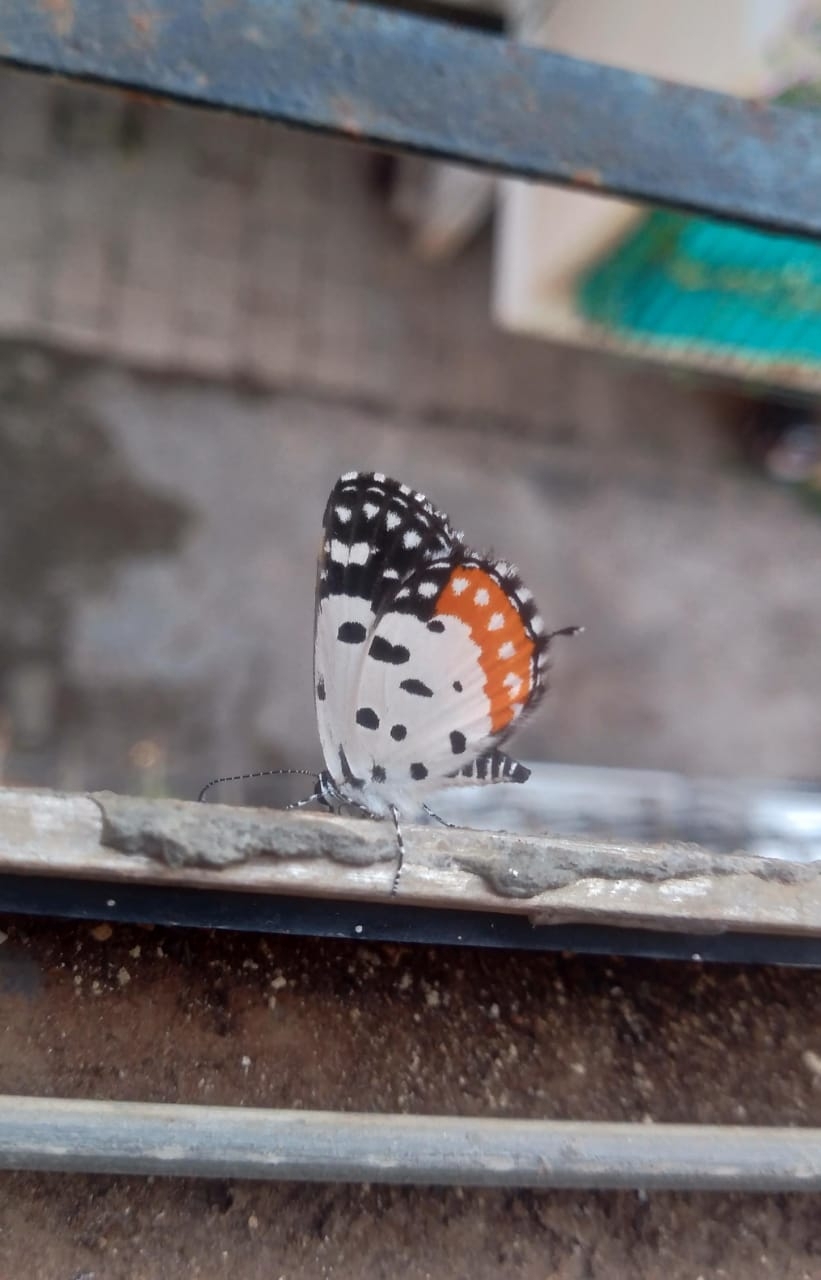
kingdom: Animalia
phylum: Arthropoda
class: Insecta
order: Lepidoptera
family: Lycaenidae
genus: Talicada
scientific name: Talicada nyseus
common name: Red pierrot
